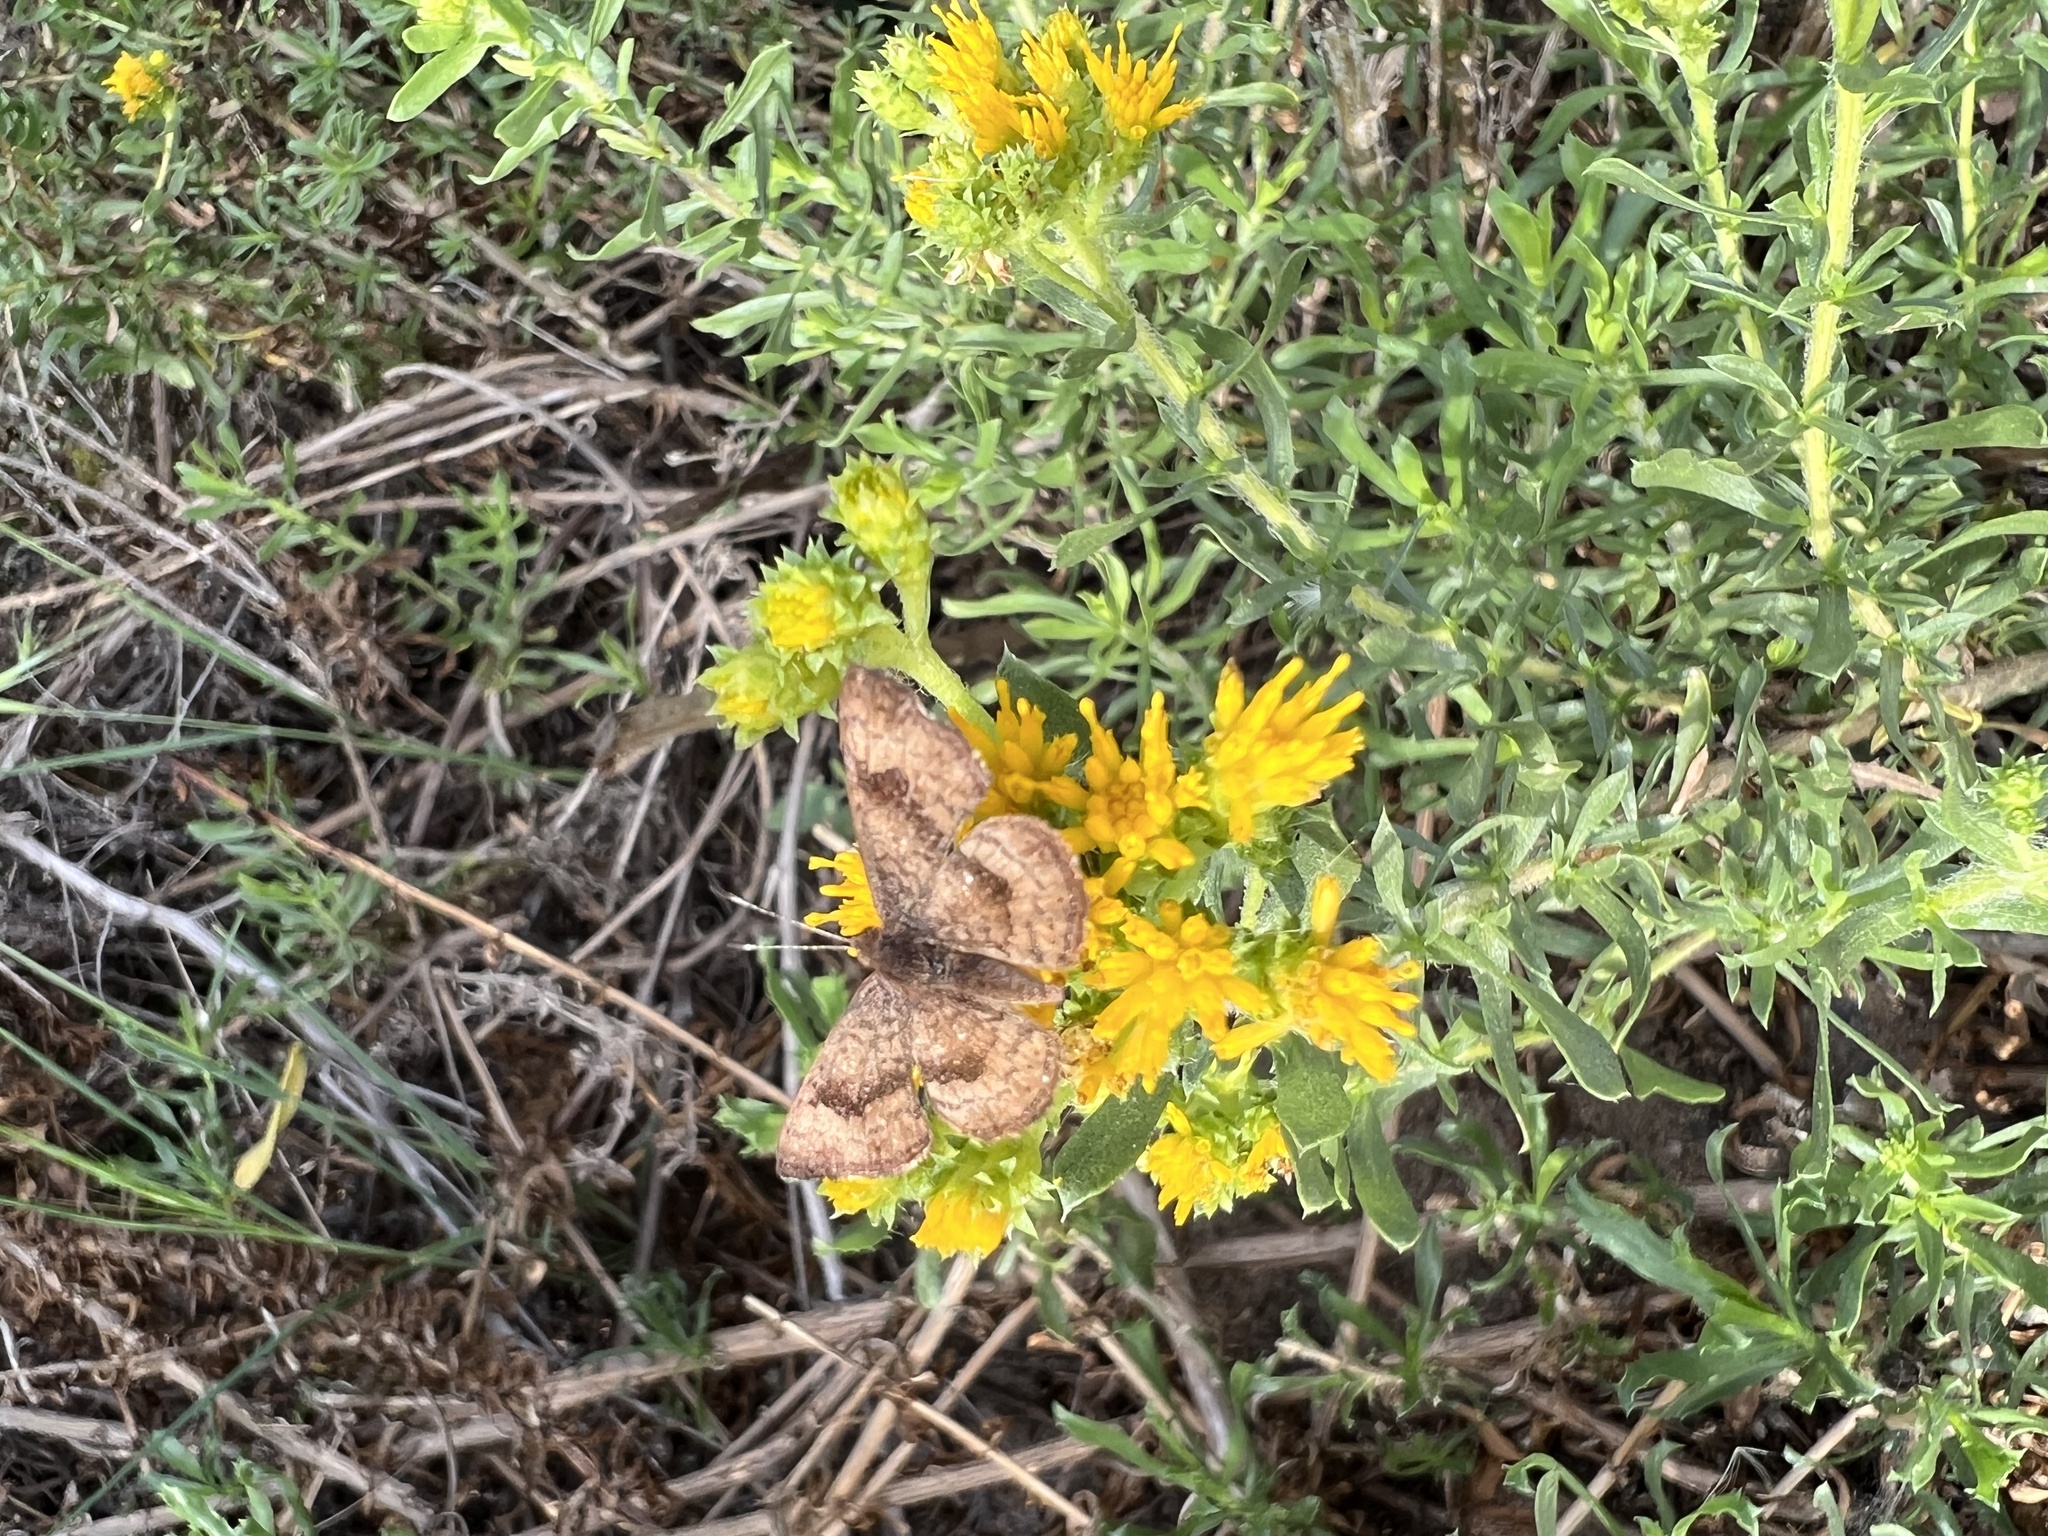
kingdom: Animalia
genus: Calephelis
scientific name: Calephelis nemesis
